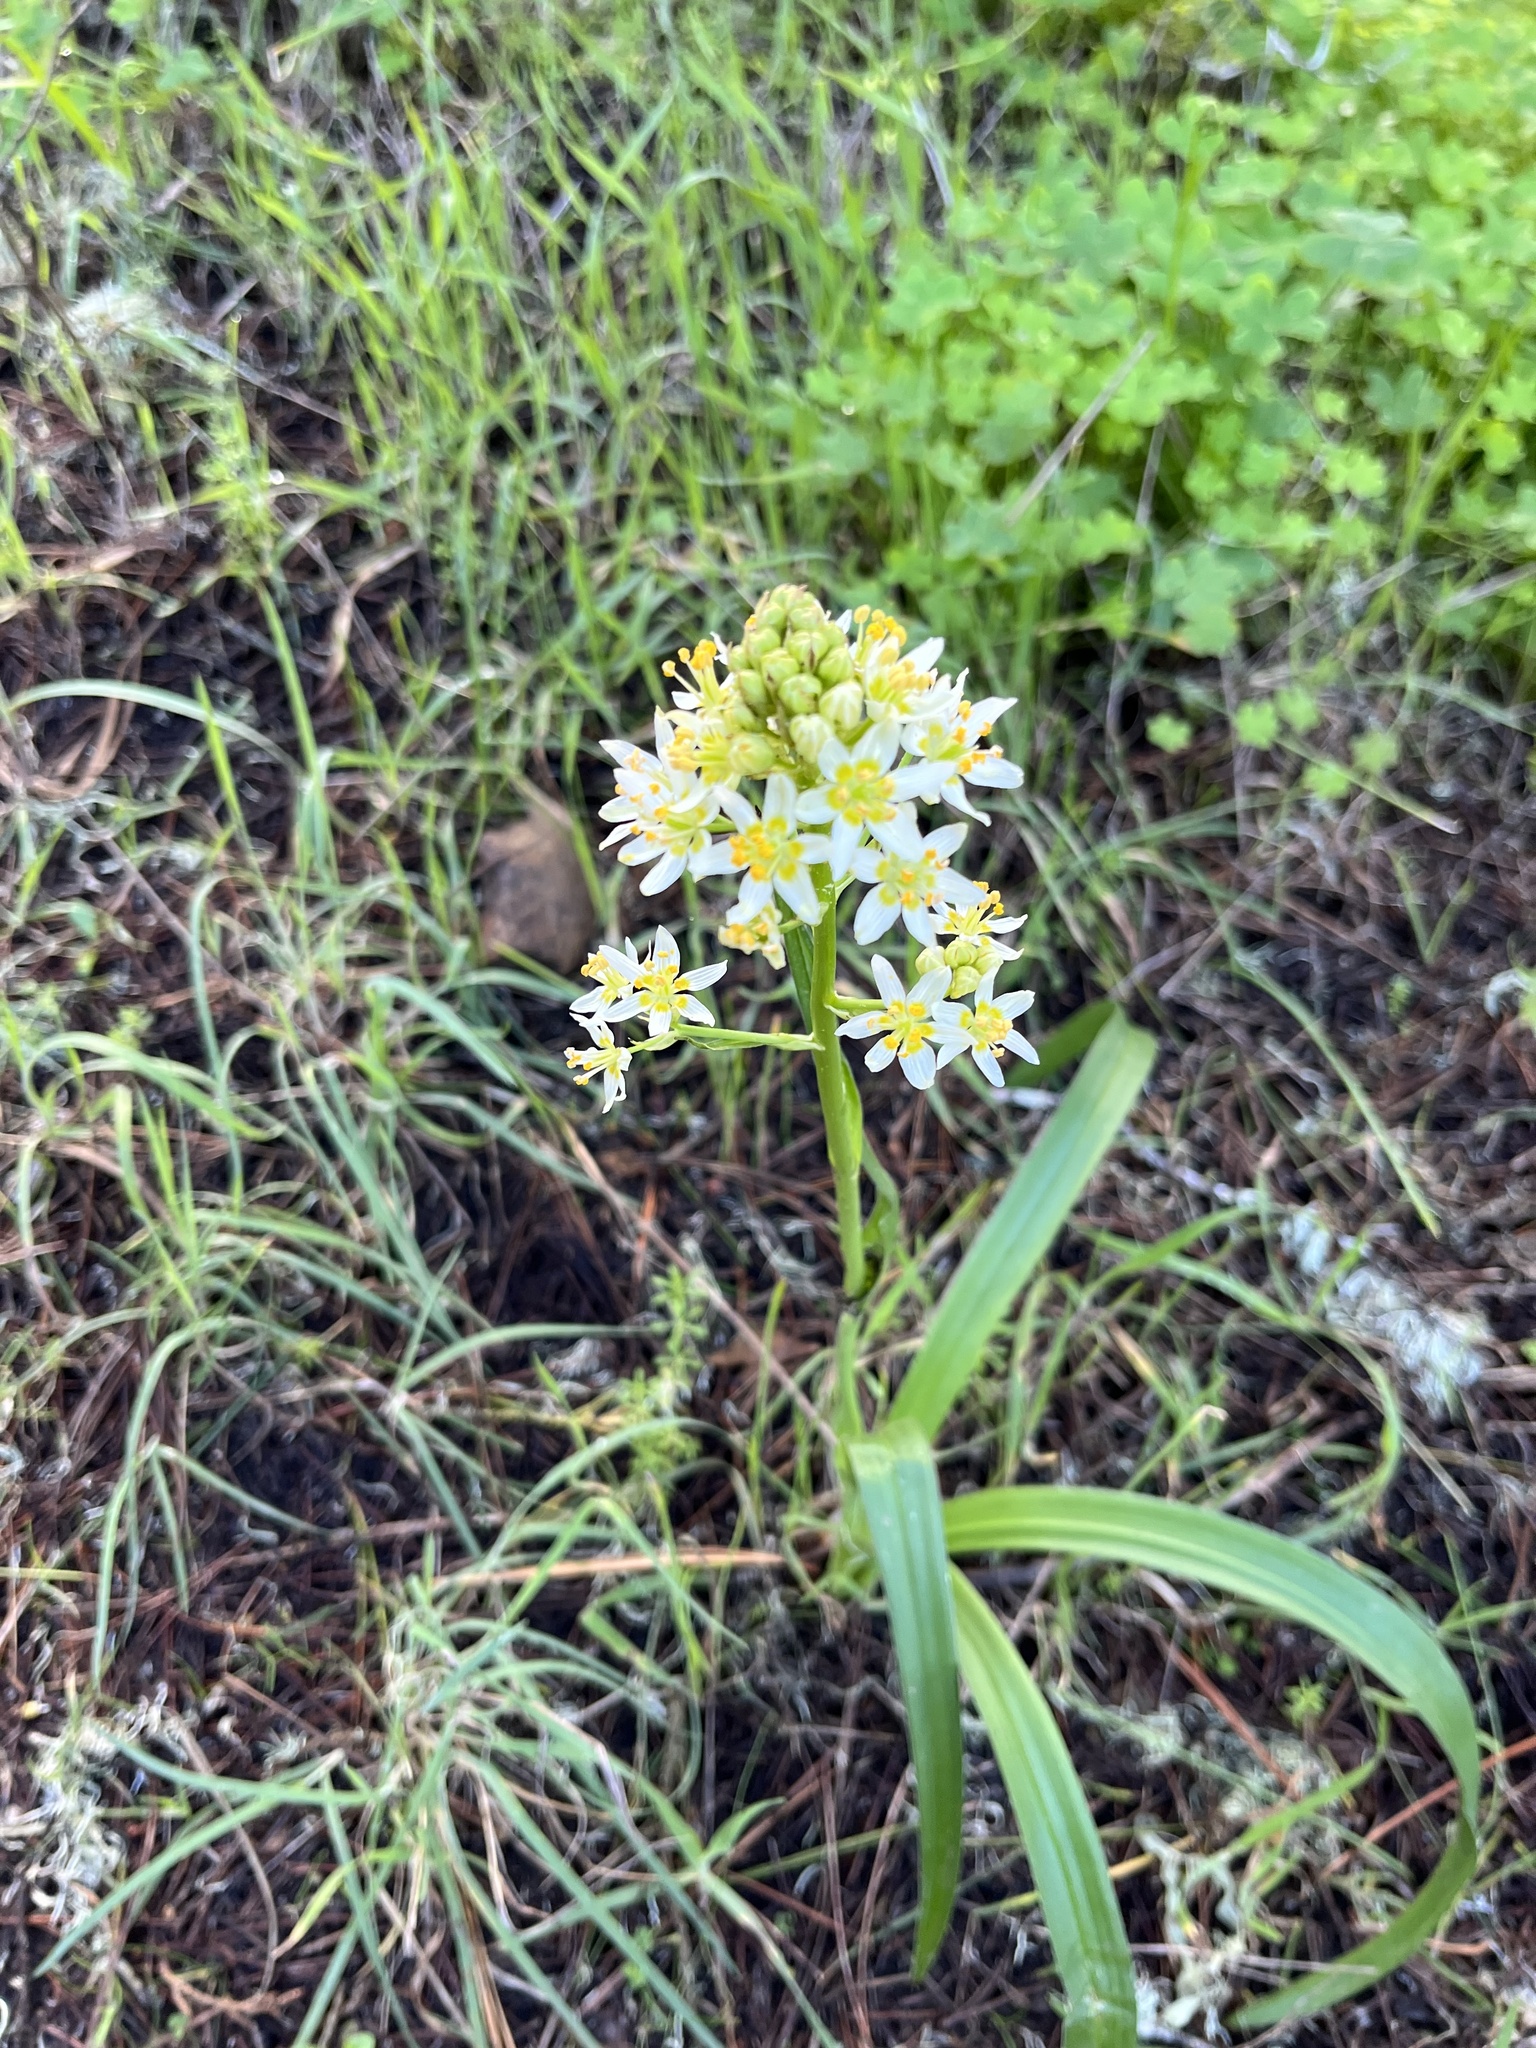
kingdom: Plantae
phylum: Tracheophyta
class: Liliopsida
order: Liliales
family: Melanthiaceae
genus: Toxicoscordion
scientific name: Toxicoscordion fremontii
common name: Fremont's death camas
